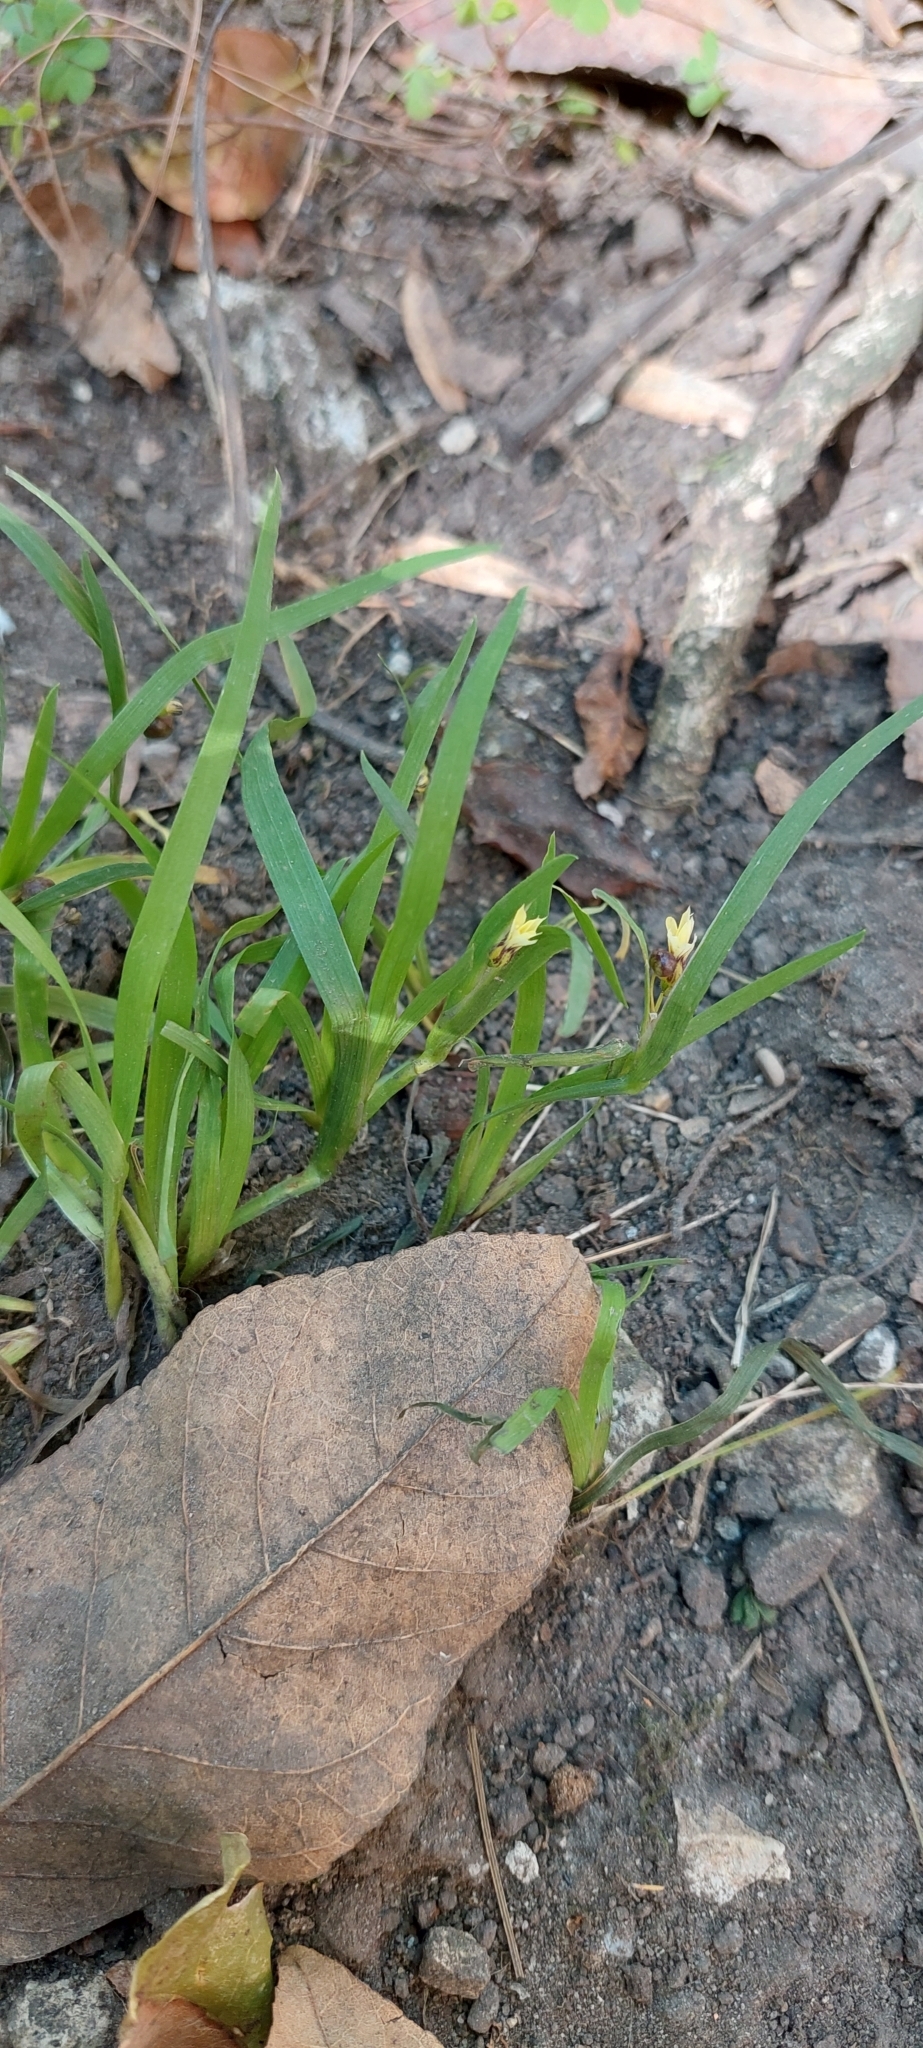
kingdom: Plantae
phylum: Tracheophyta
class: Liliopsida
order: Asparagales
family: Iridaceae
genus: Sisyrinchium
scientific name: Sisyrinchium micranthum
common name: Bermuda pigroot
